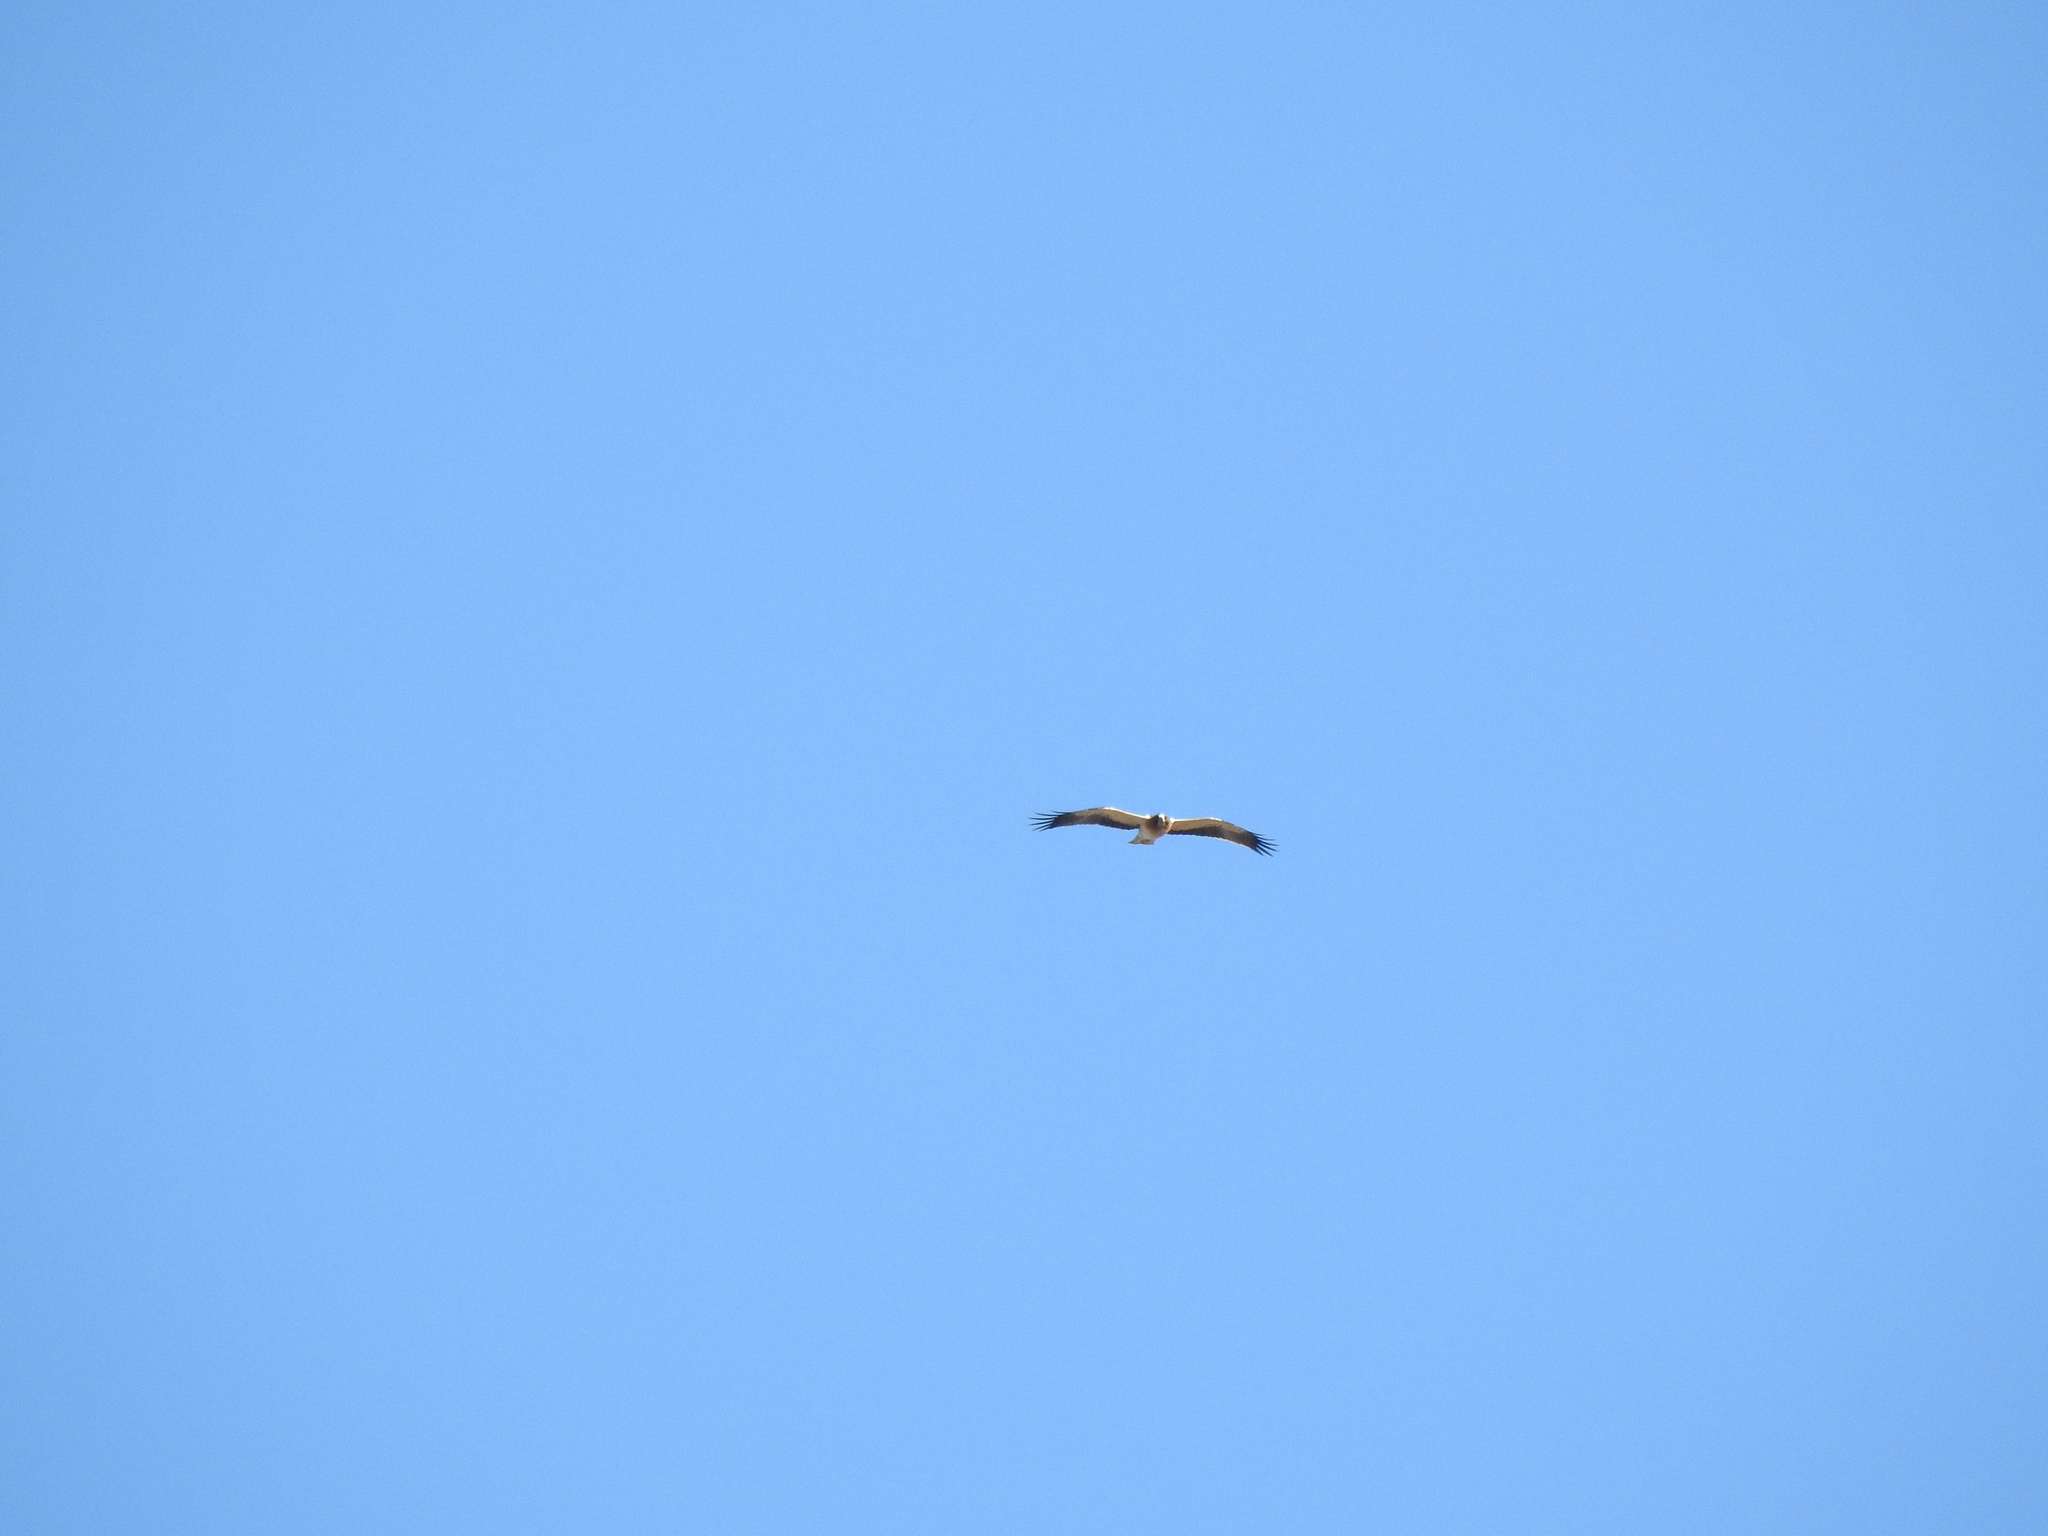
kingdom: Animalia
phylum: Chordata
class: Aves
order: Accipitriformes
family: Accipitridae
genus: Hieraaetus
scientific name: Hieraaetus pennatus
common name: Booted eagle
